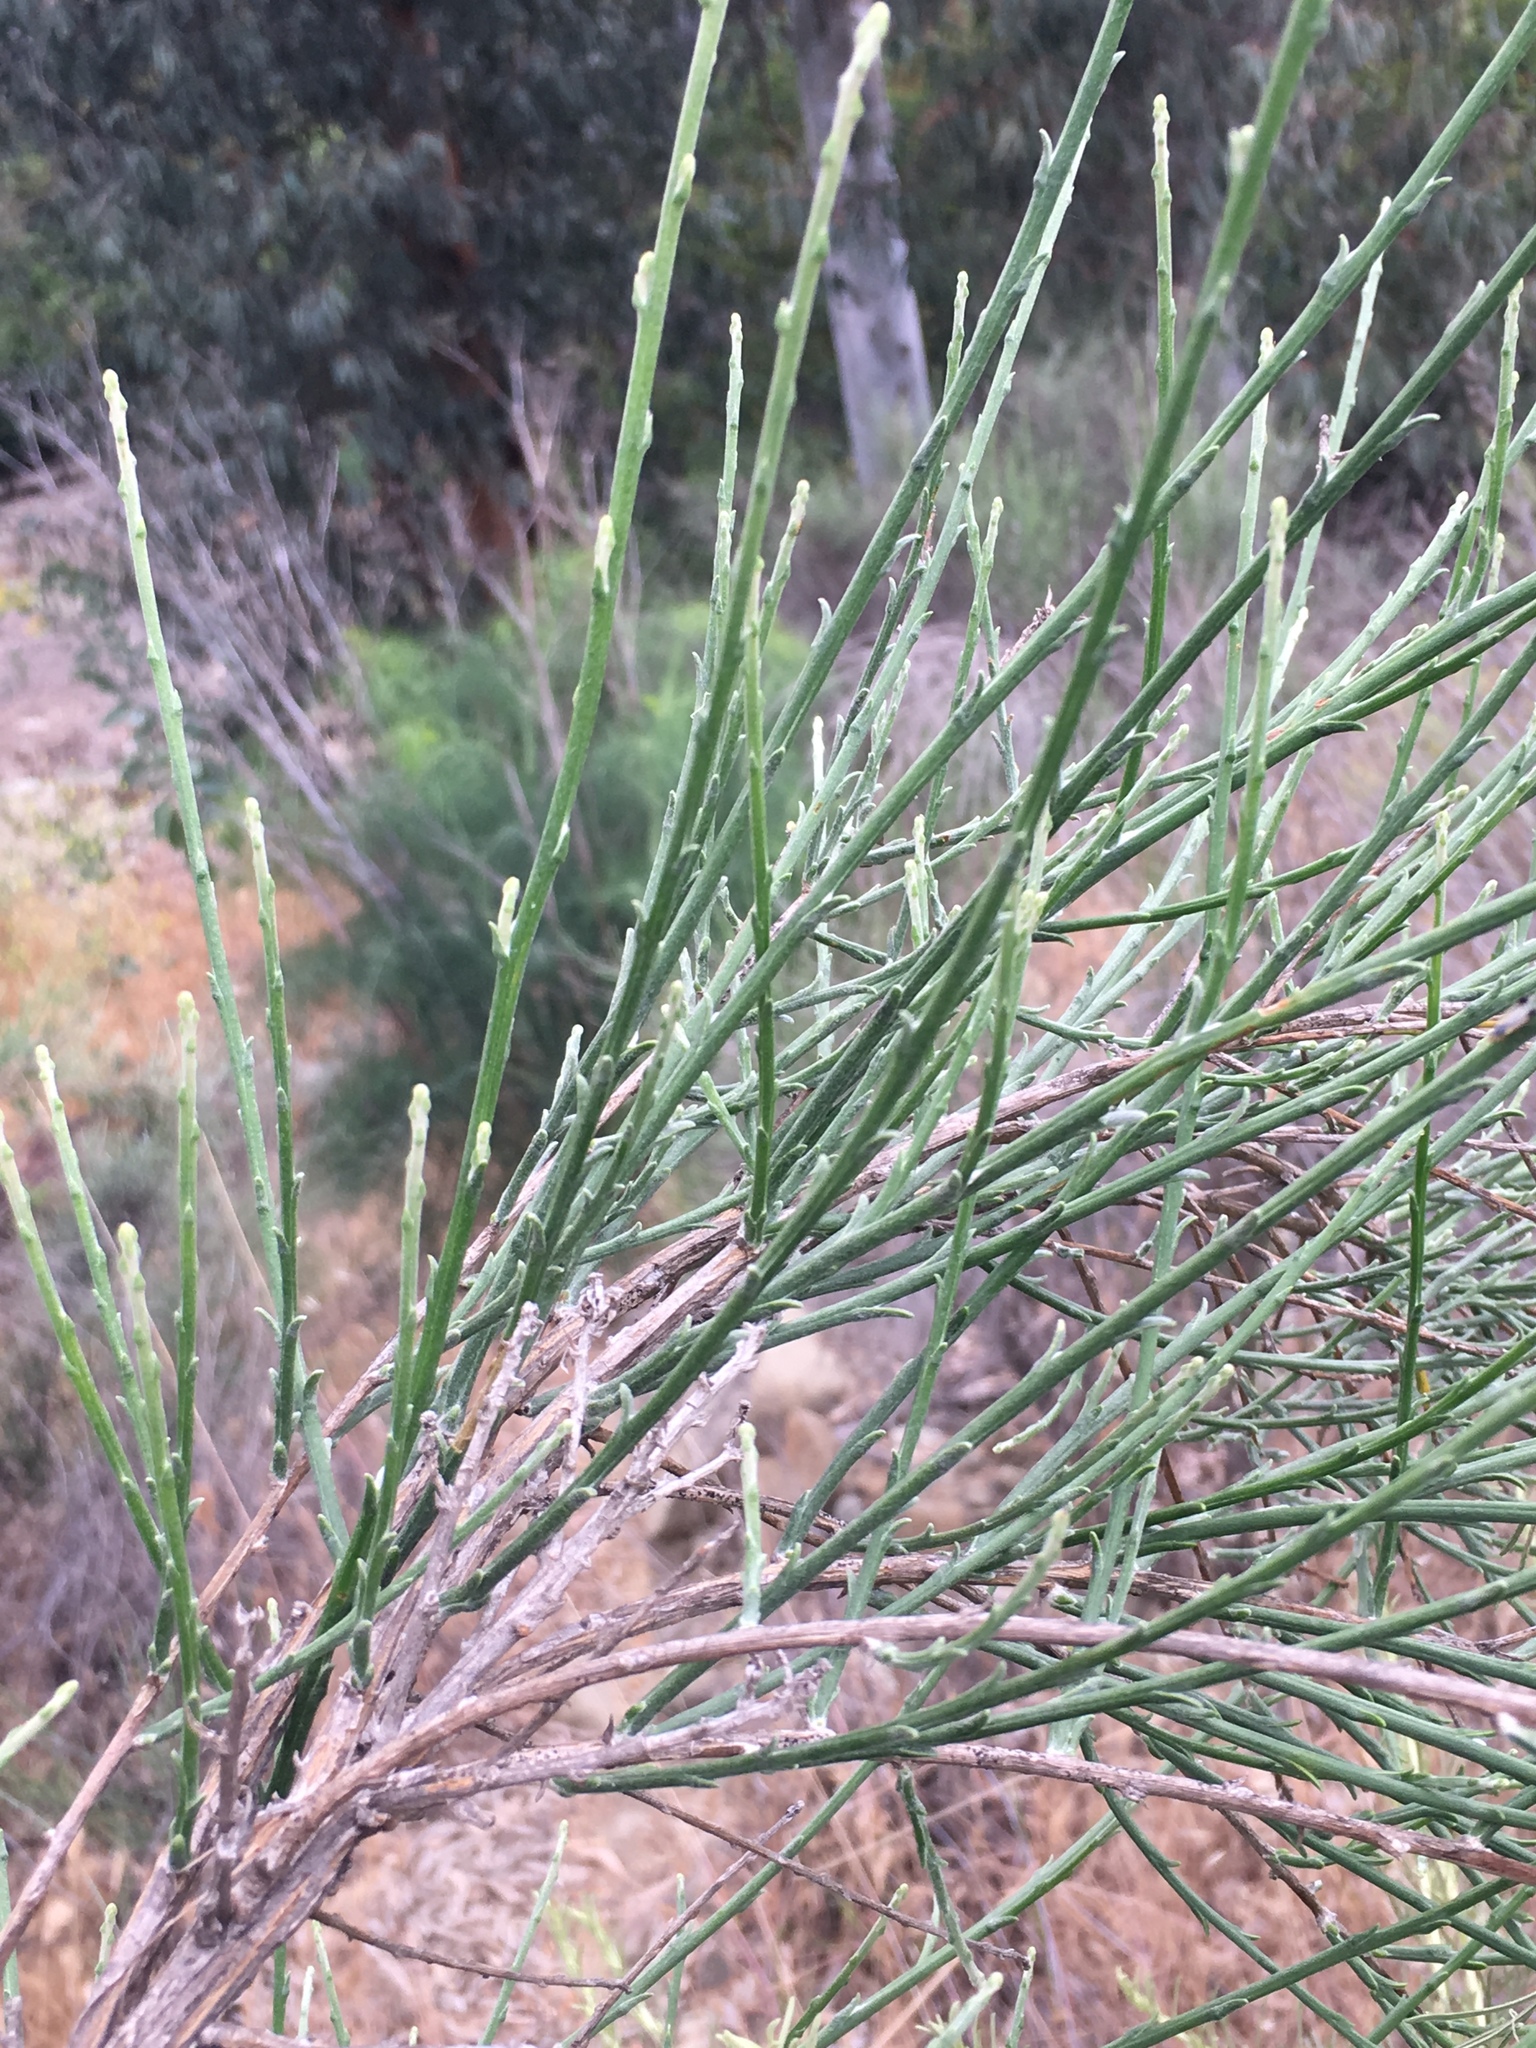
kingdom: Plantae
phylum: Tracheophyta
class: Magnoliopsida
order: Asterales
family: Asteraceae
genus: Lepidospartum
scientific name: Lepidospartum squamatum
